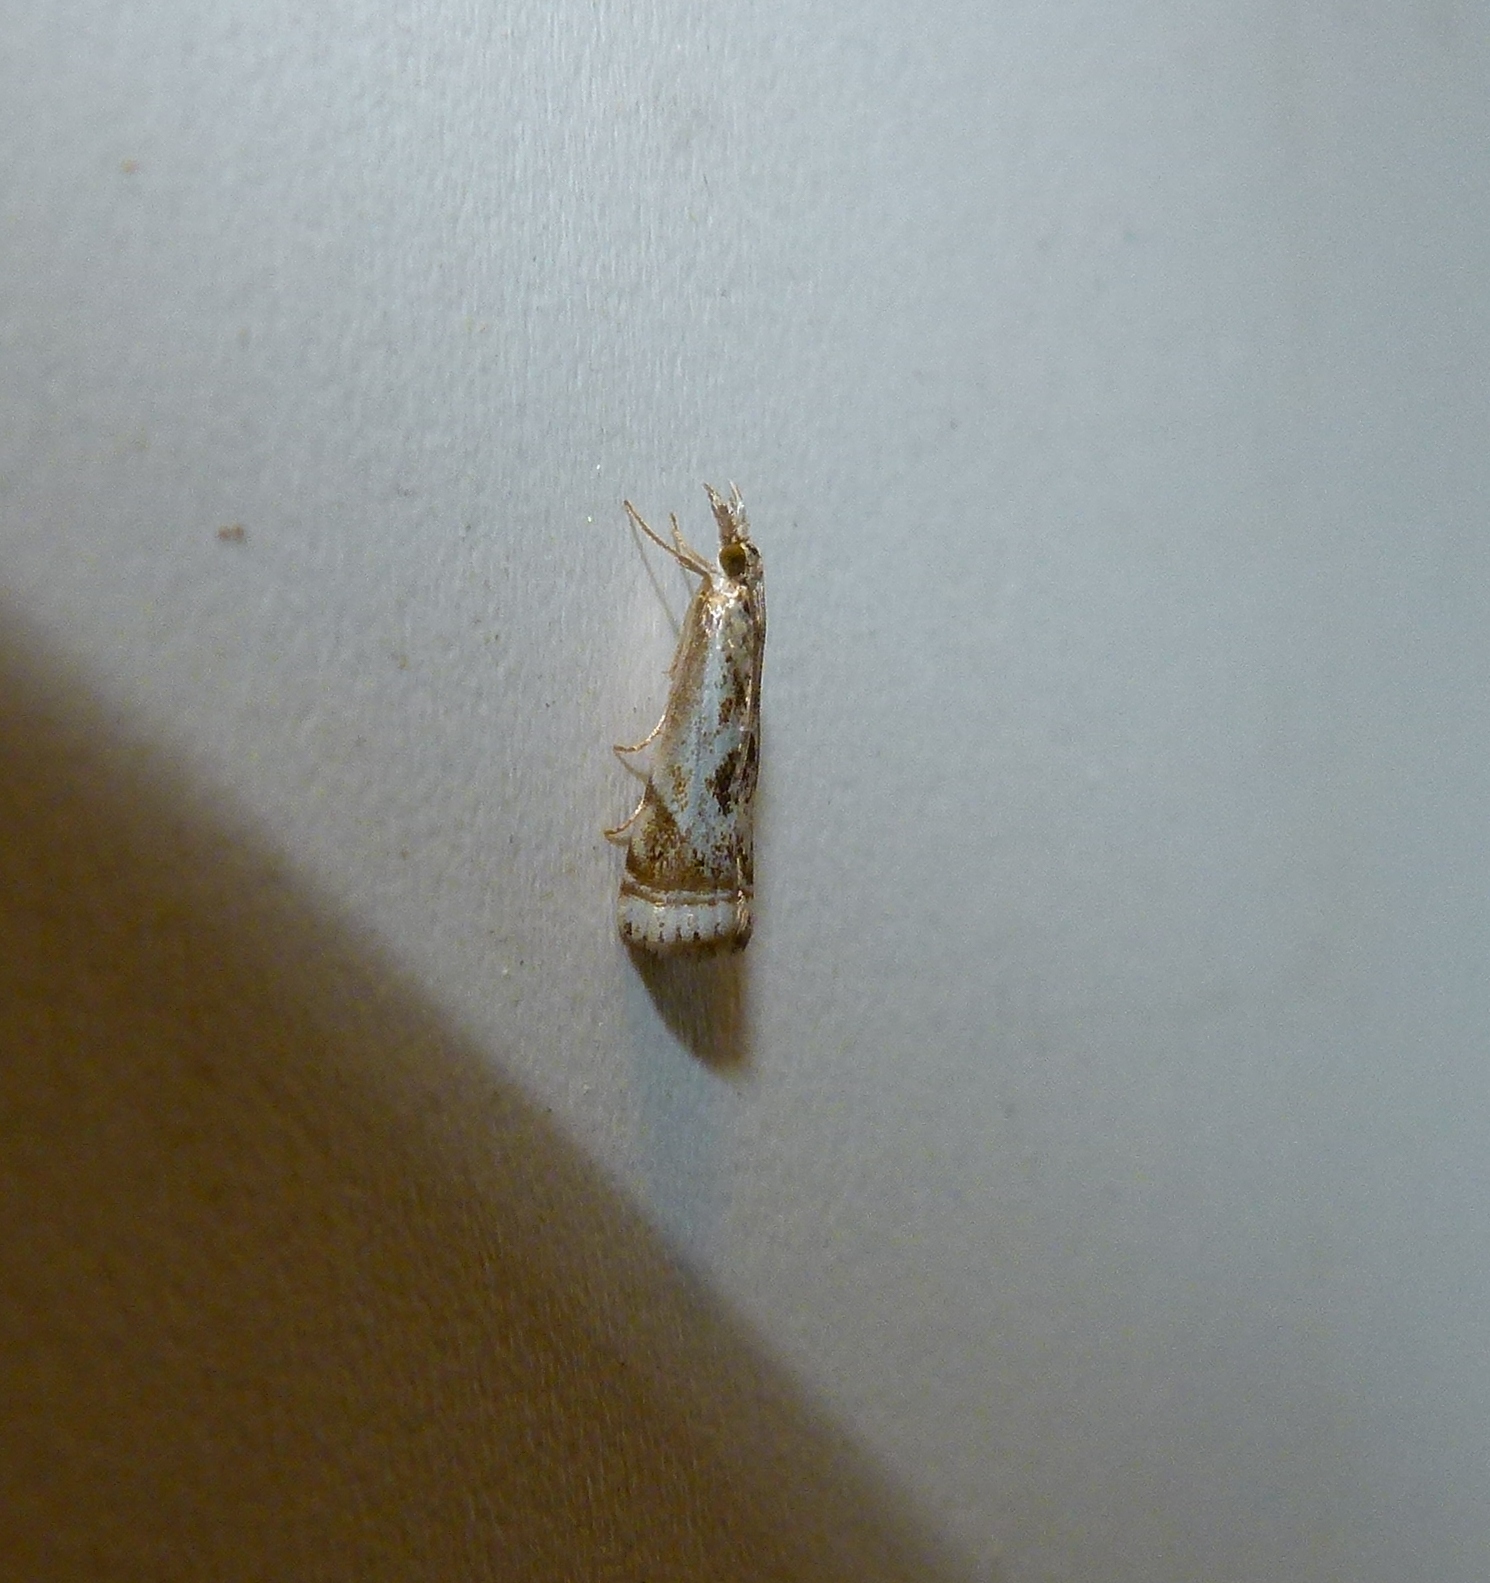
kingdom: Animalia
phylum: Arthropoda
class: Insecta
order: Lepidoptera
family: Crambidae
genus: Microcrambus
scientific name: Microcrambus elegans
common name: Elegant grass-veneer
